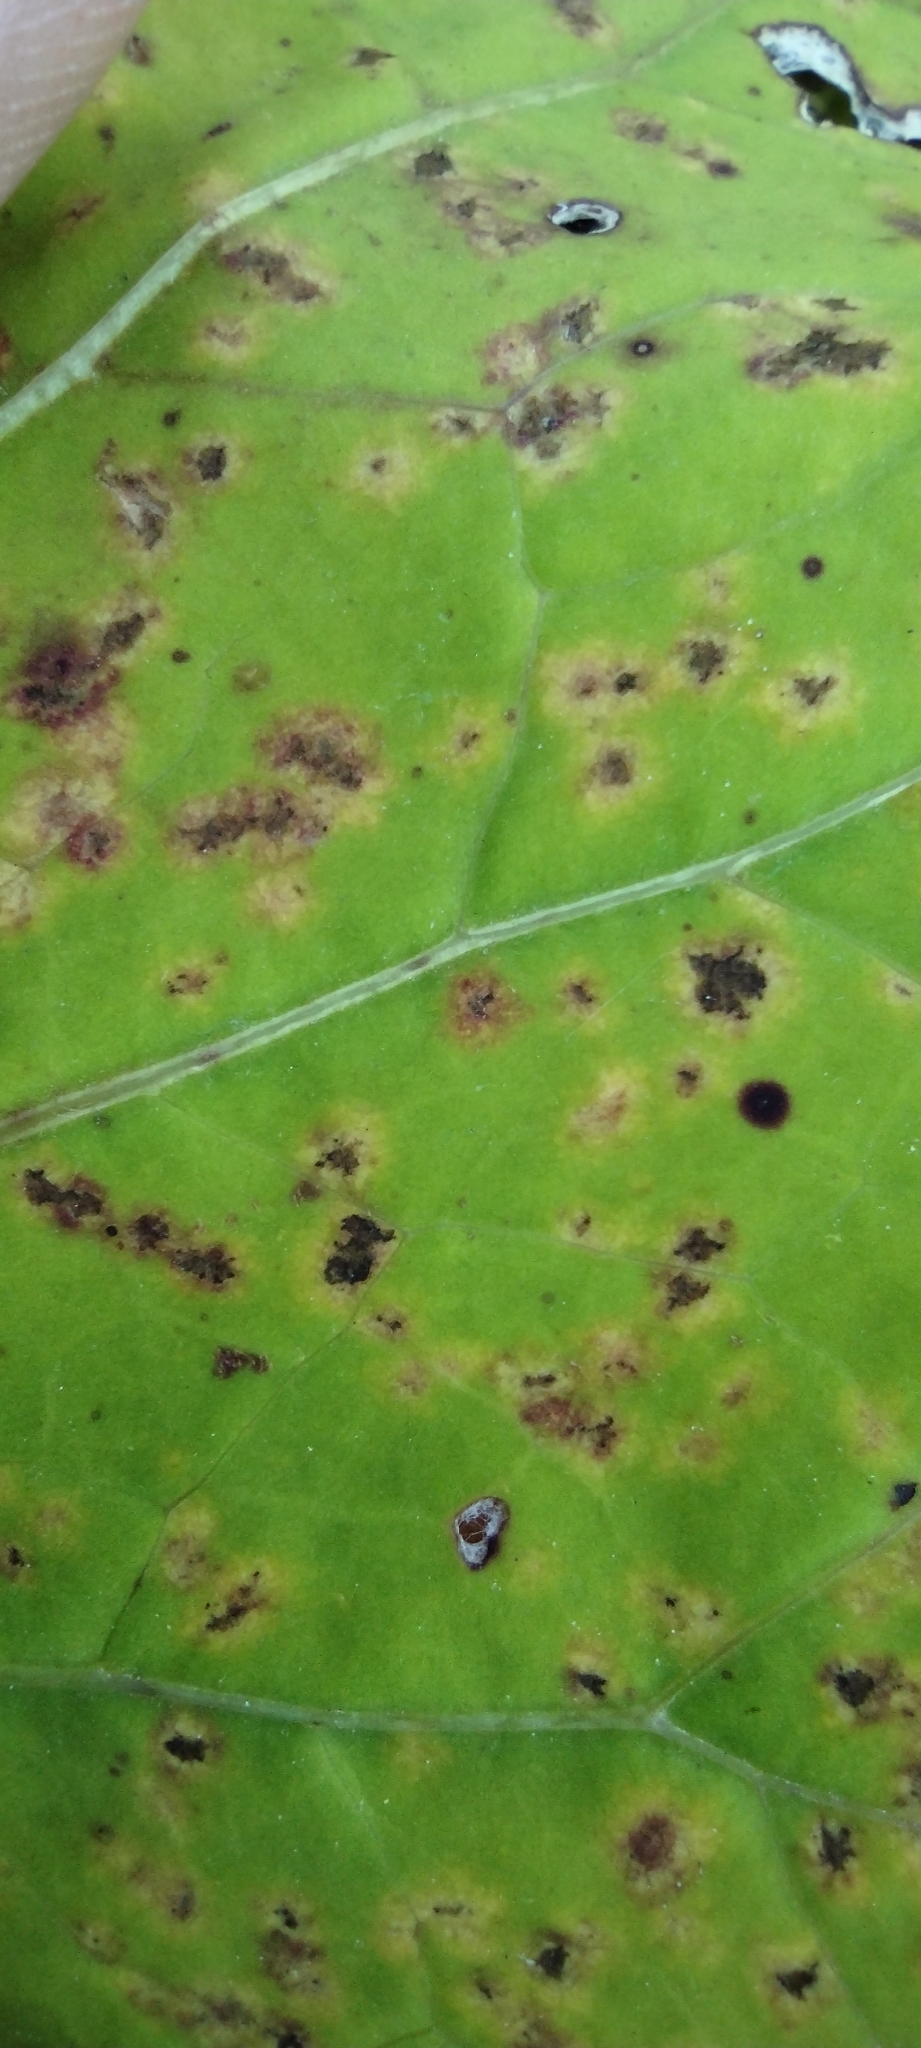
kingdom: Fungi
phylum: Basidiomycota
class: Pucciniomycetes
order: Pucciniales
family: Coleosporiaceae
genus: Coleosporium
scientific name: Coleosporium tussilaginis
